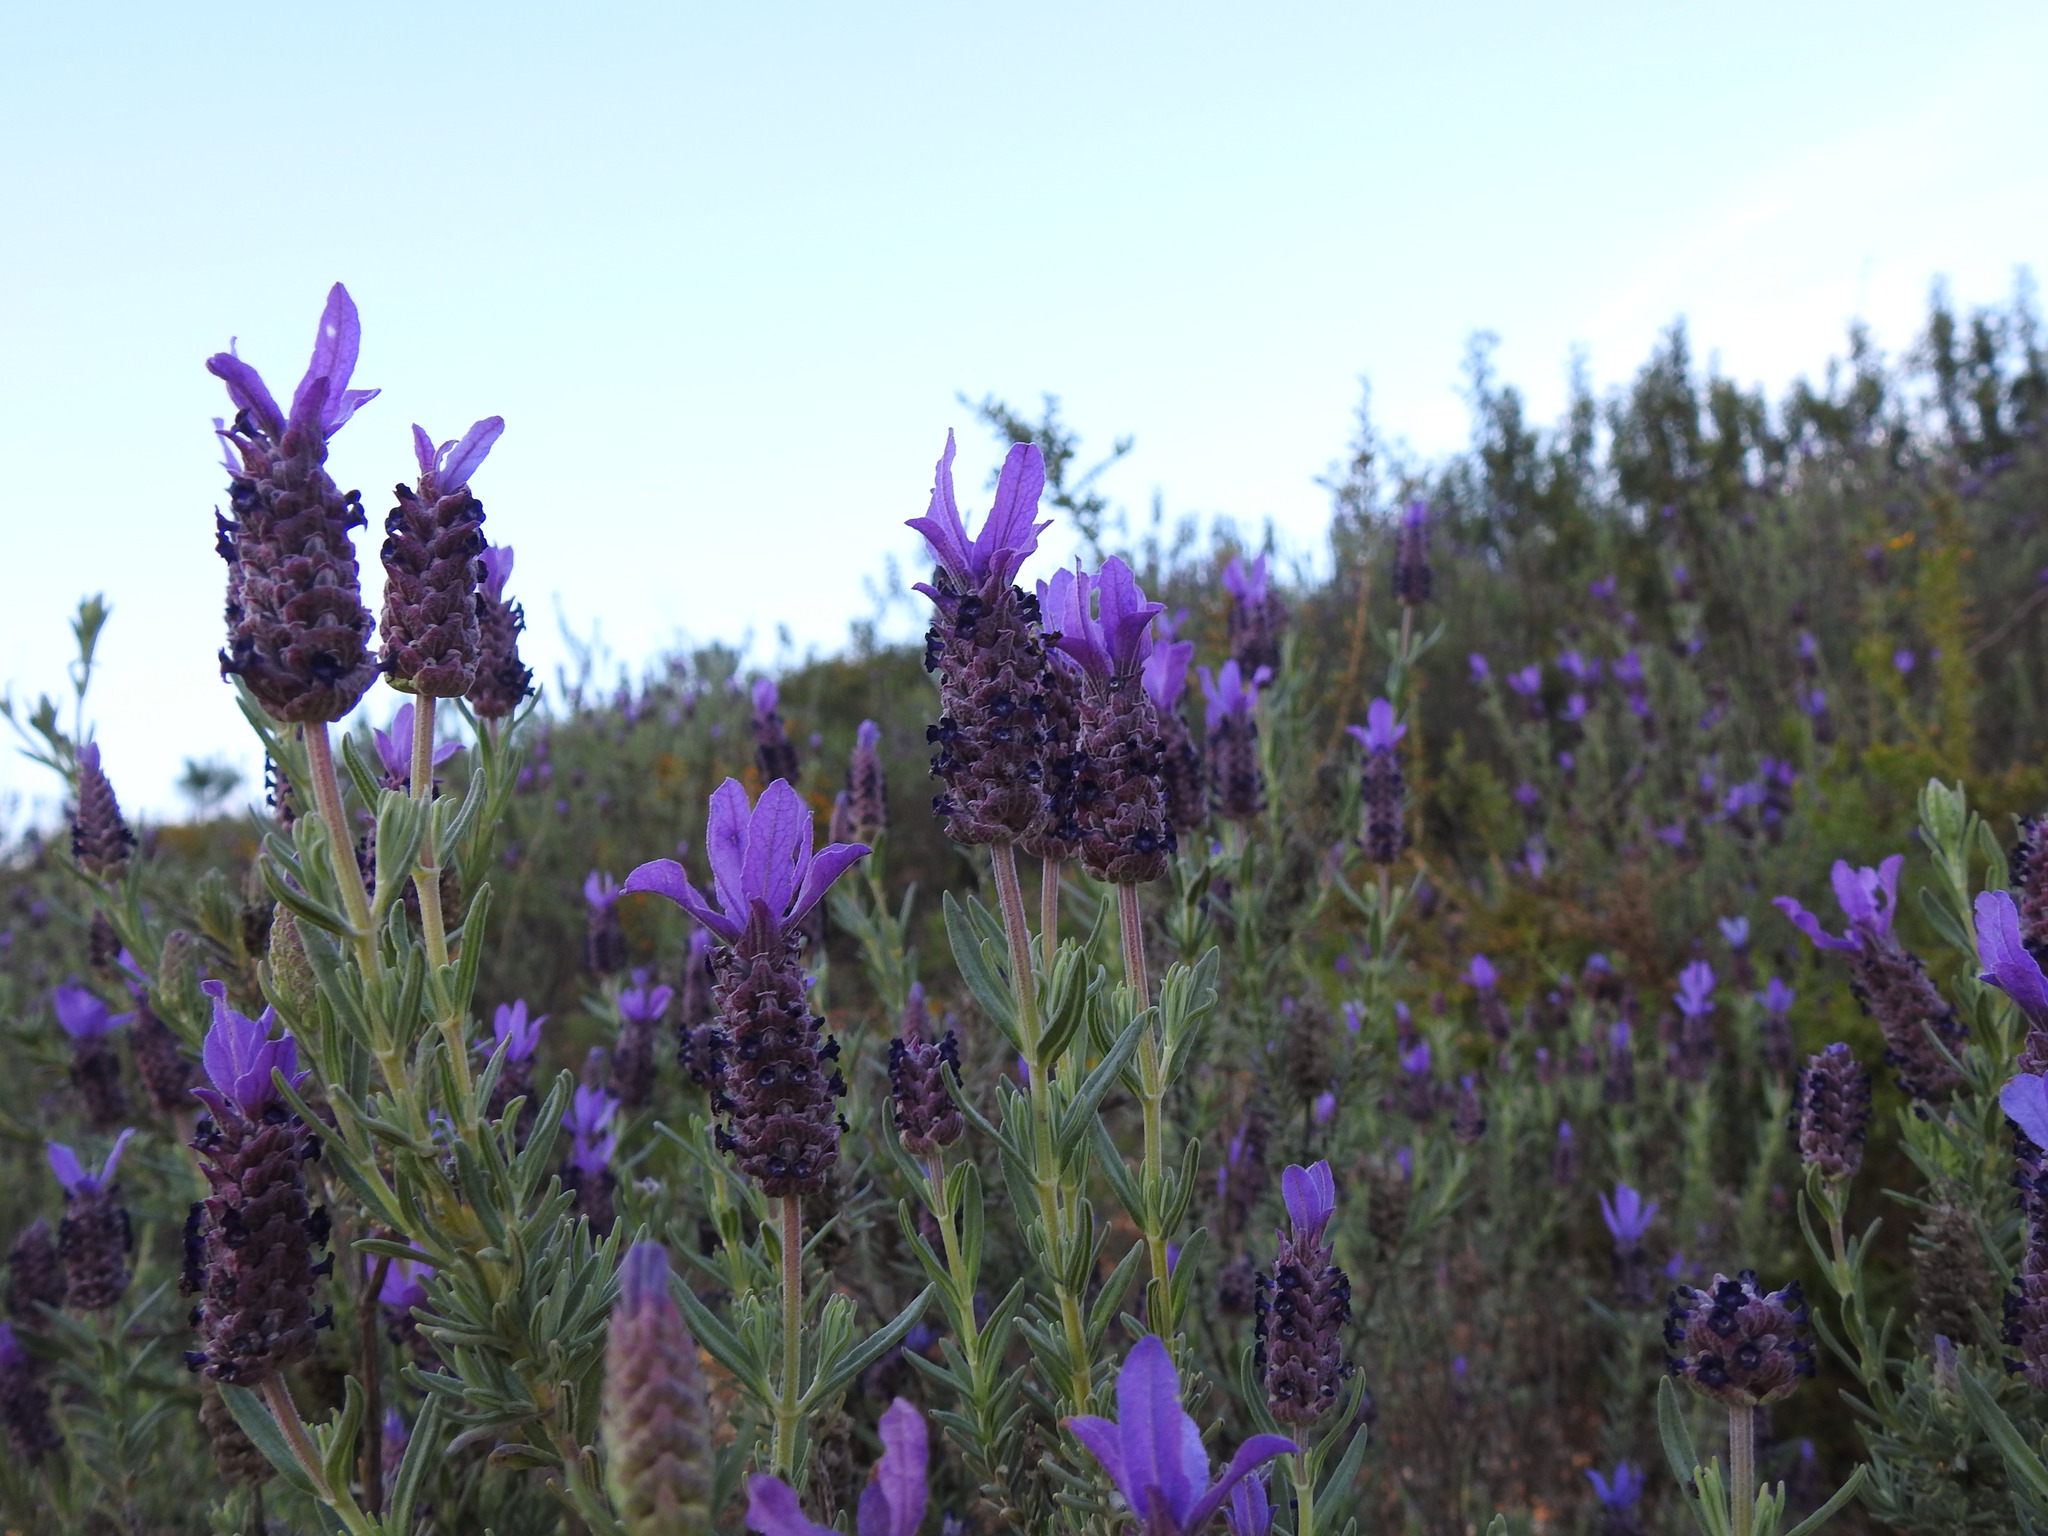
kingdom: Plantae
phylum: Tracheophyta
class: Magnoliopsida
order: Lamiales
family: Lamiaceae
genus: Lavandula
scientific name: Lavandula stoechas
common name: French lavender
